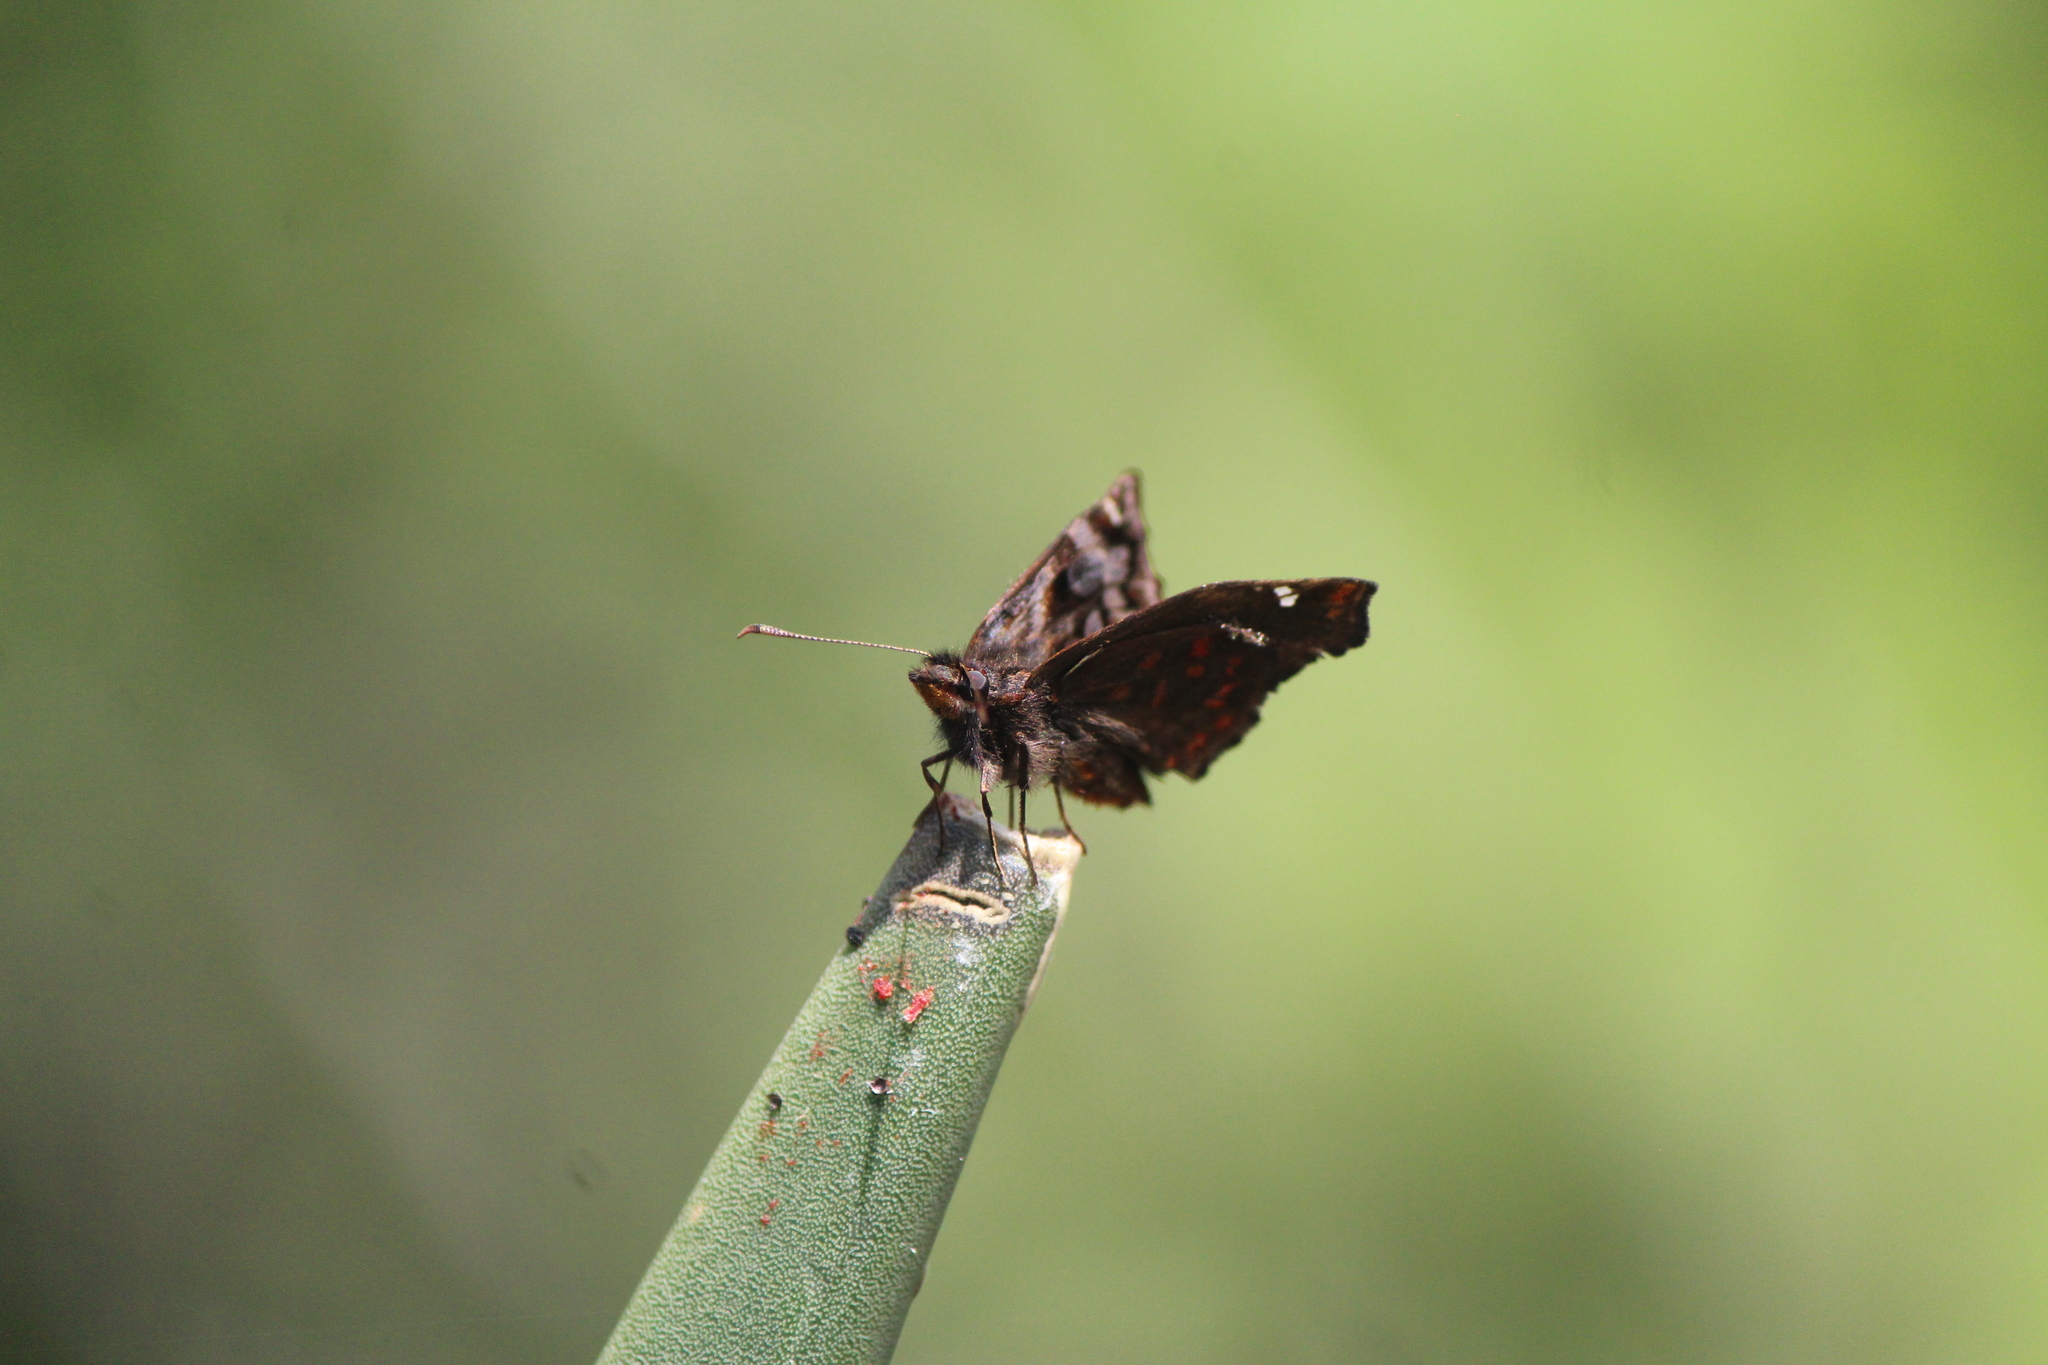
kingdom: Animalia
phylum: Arthropoda
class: Insecta
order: Lepidoptera
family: Hesperiidae
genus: Noctuana
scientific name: Noctuana stator
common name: Red-studded skipper
